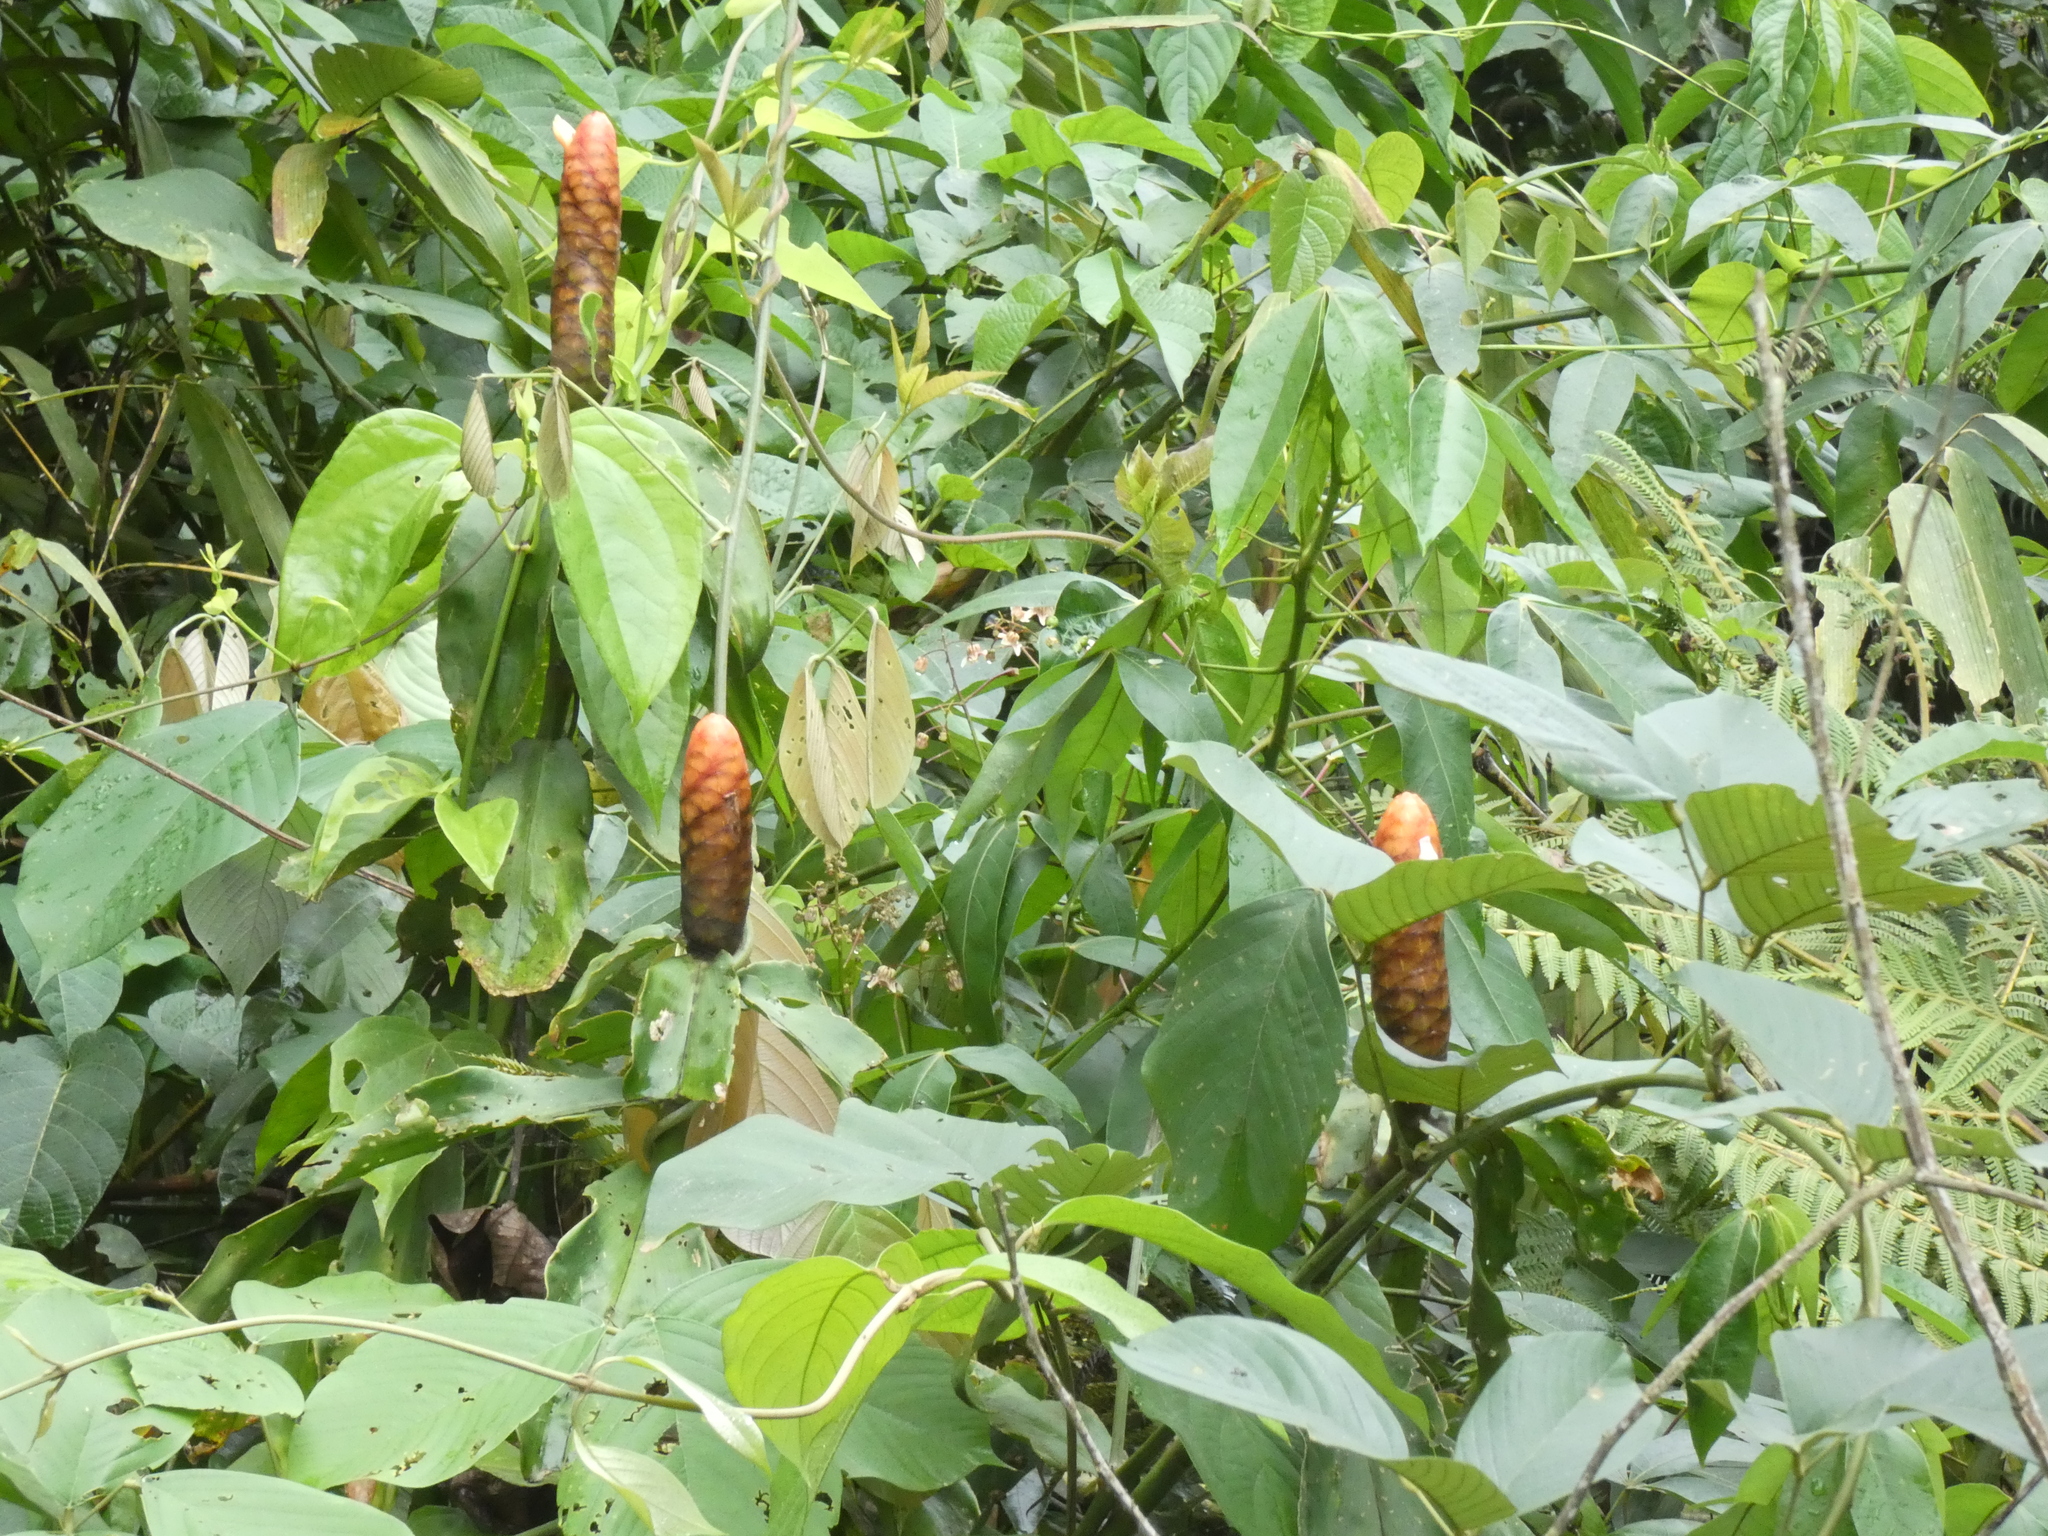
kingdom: Plantae
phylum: Tracheophyta
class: Liliopsida
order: Zingiberales
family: Costaceae
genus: Costus
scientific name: Costus scaber
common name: Spiral head ginger
